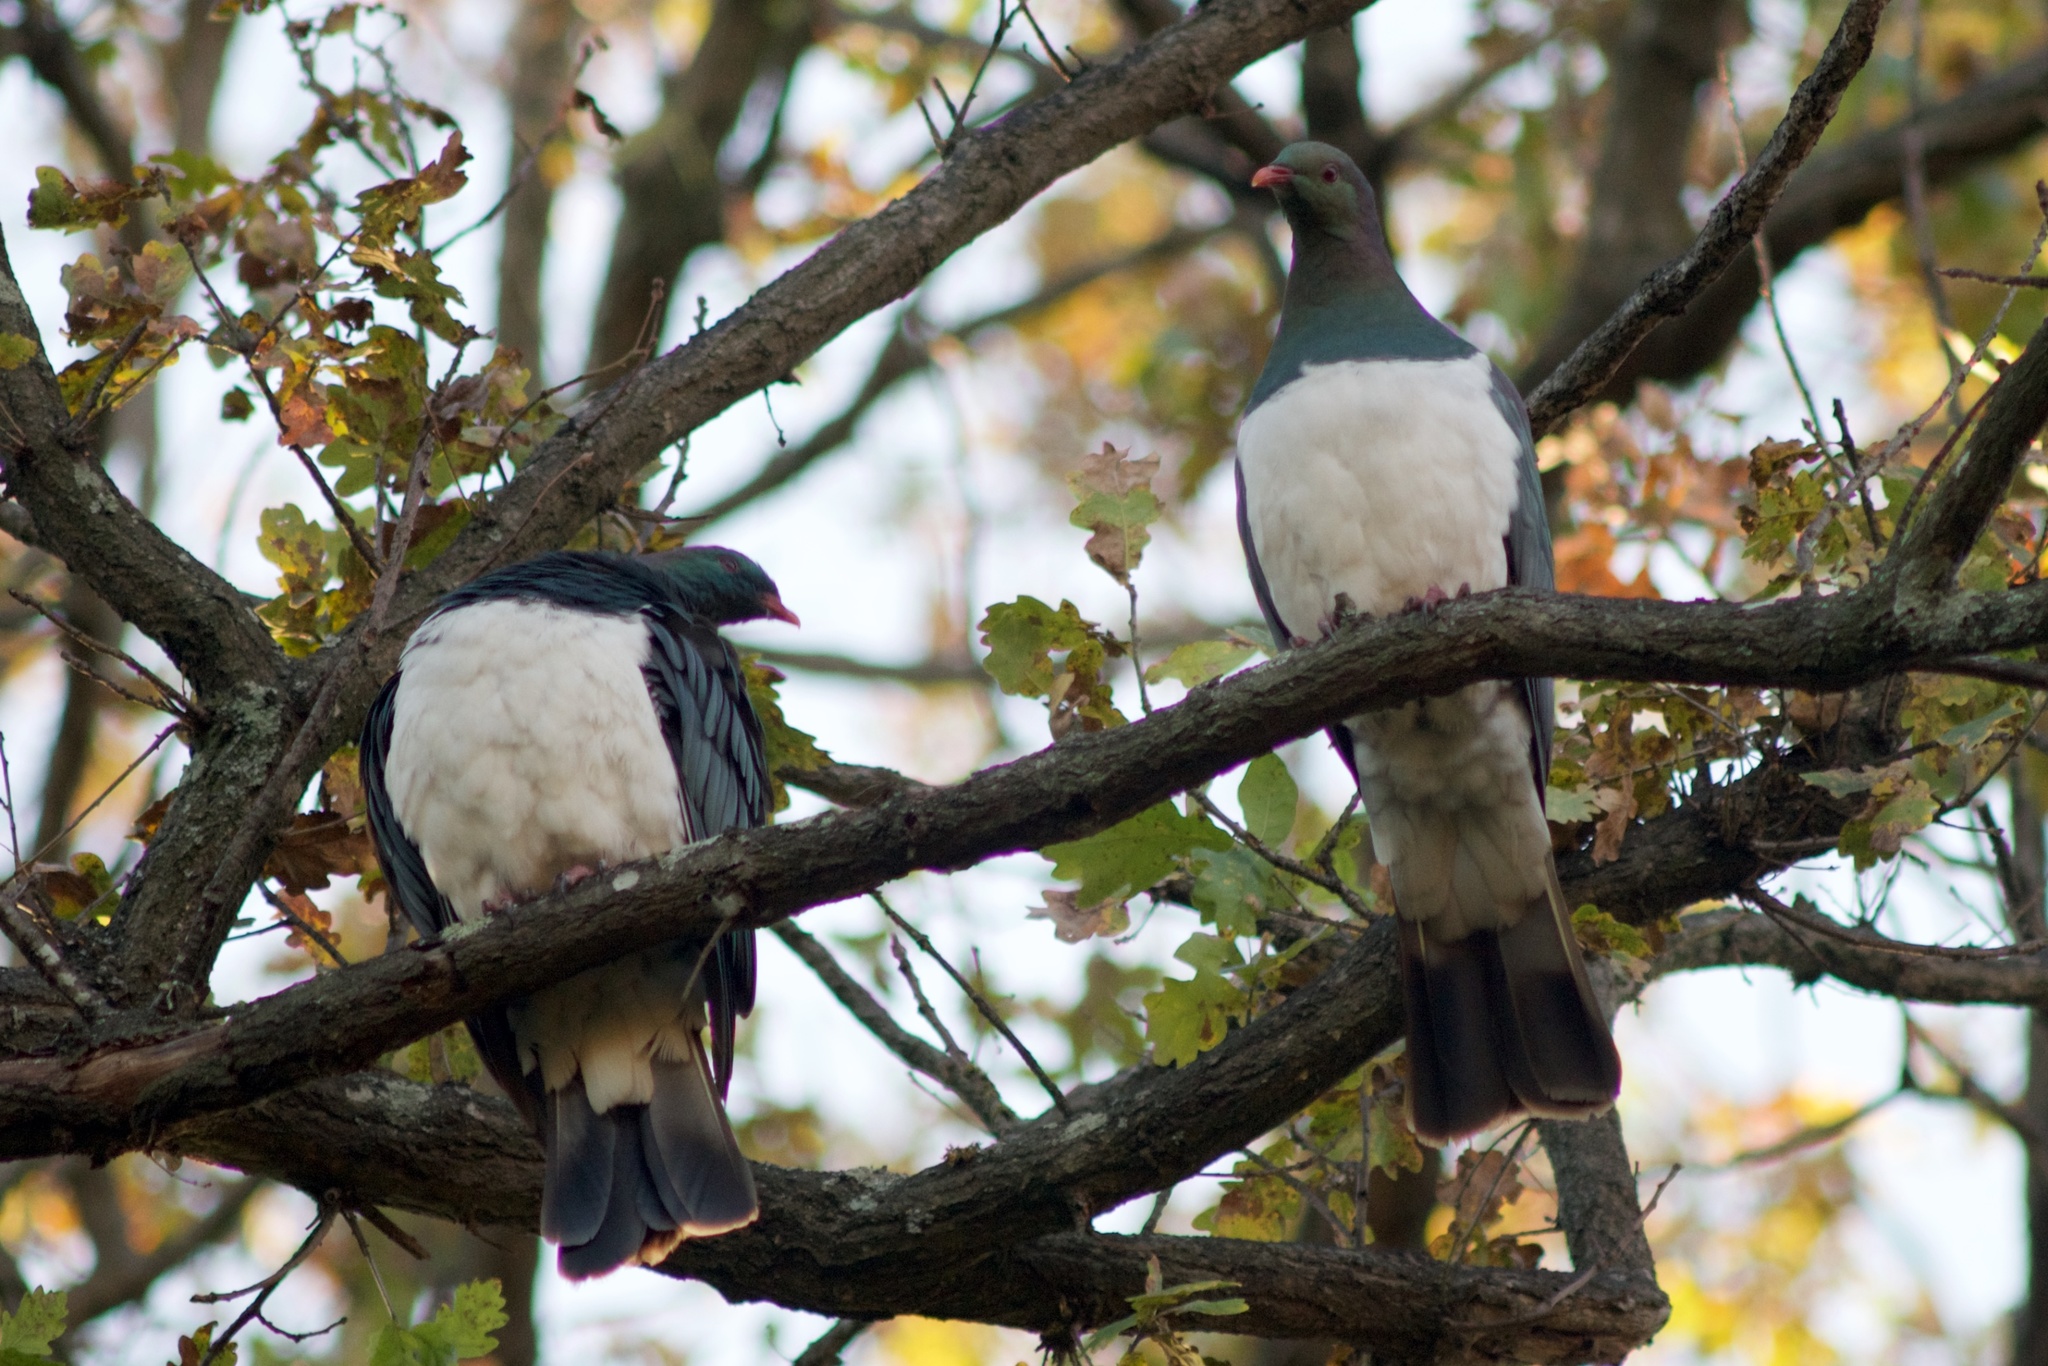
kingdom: Animalia
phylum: Chordata
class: Aves
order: Columbiformes
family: Columbidae
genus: Hemiphaga
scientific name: Hemiphaga novaeseelandiae
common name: New zealand pigeon
